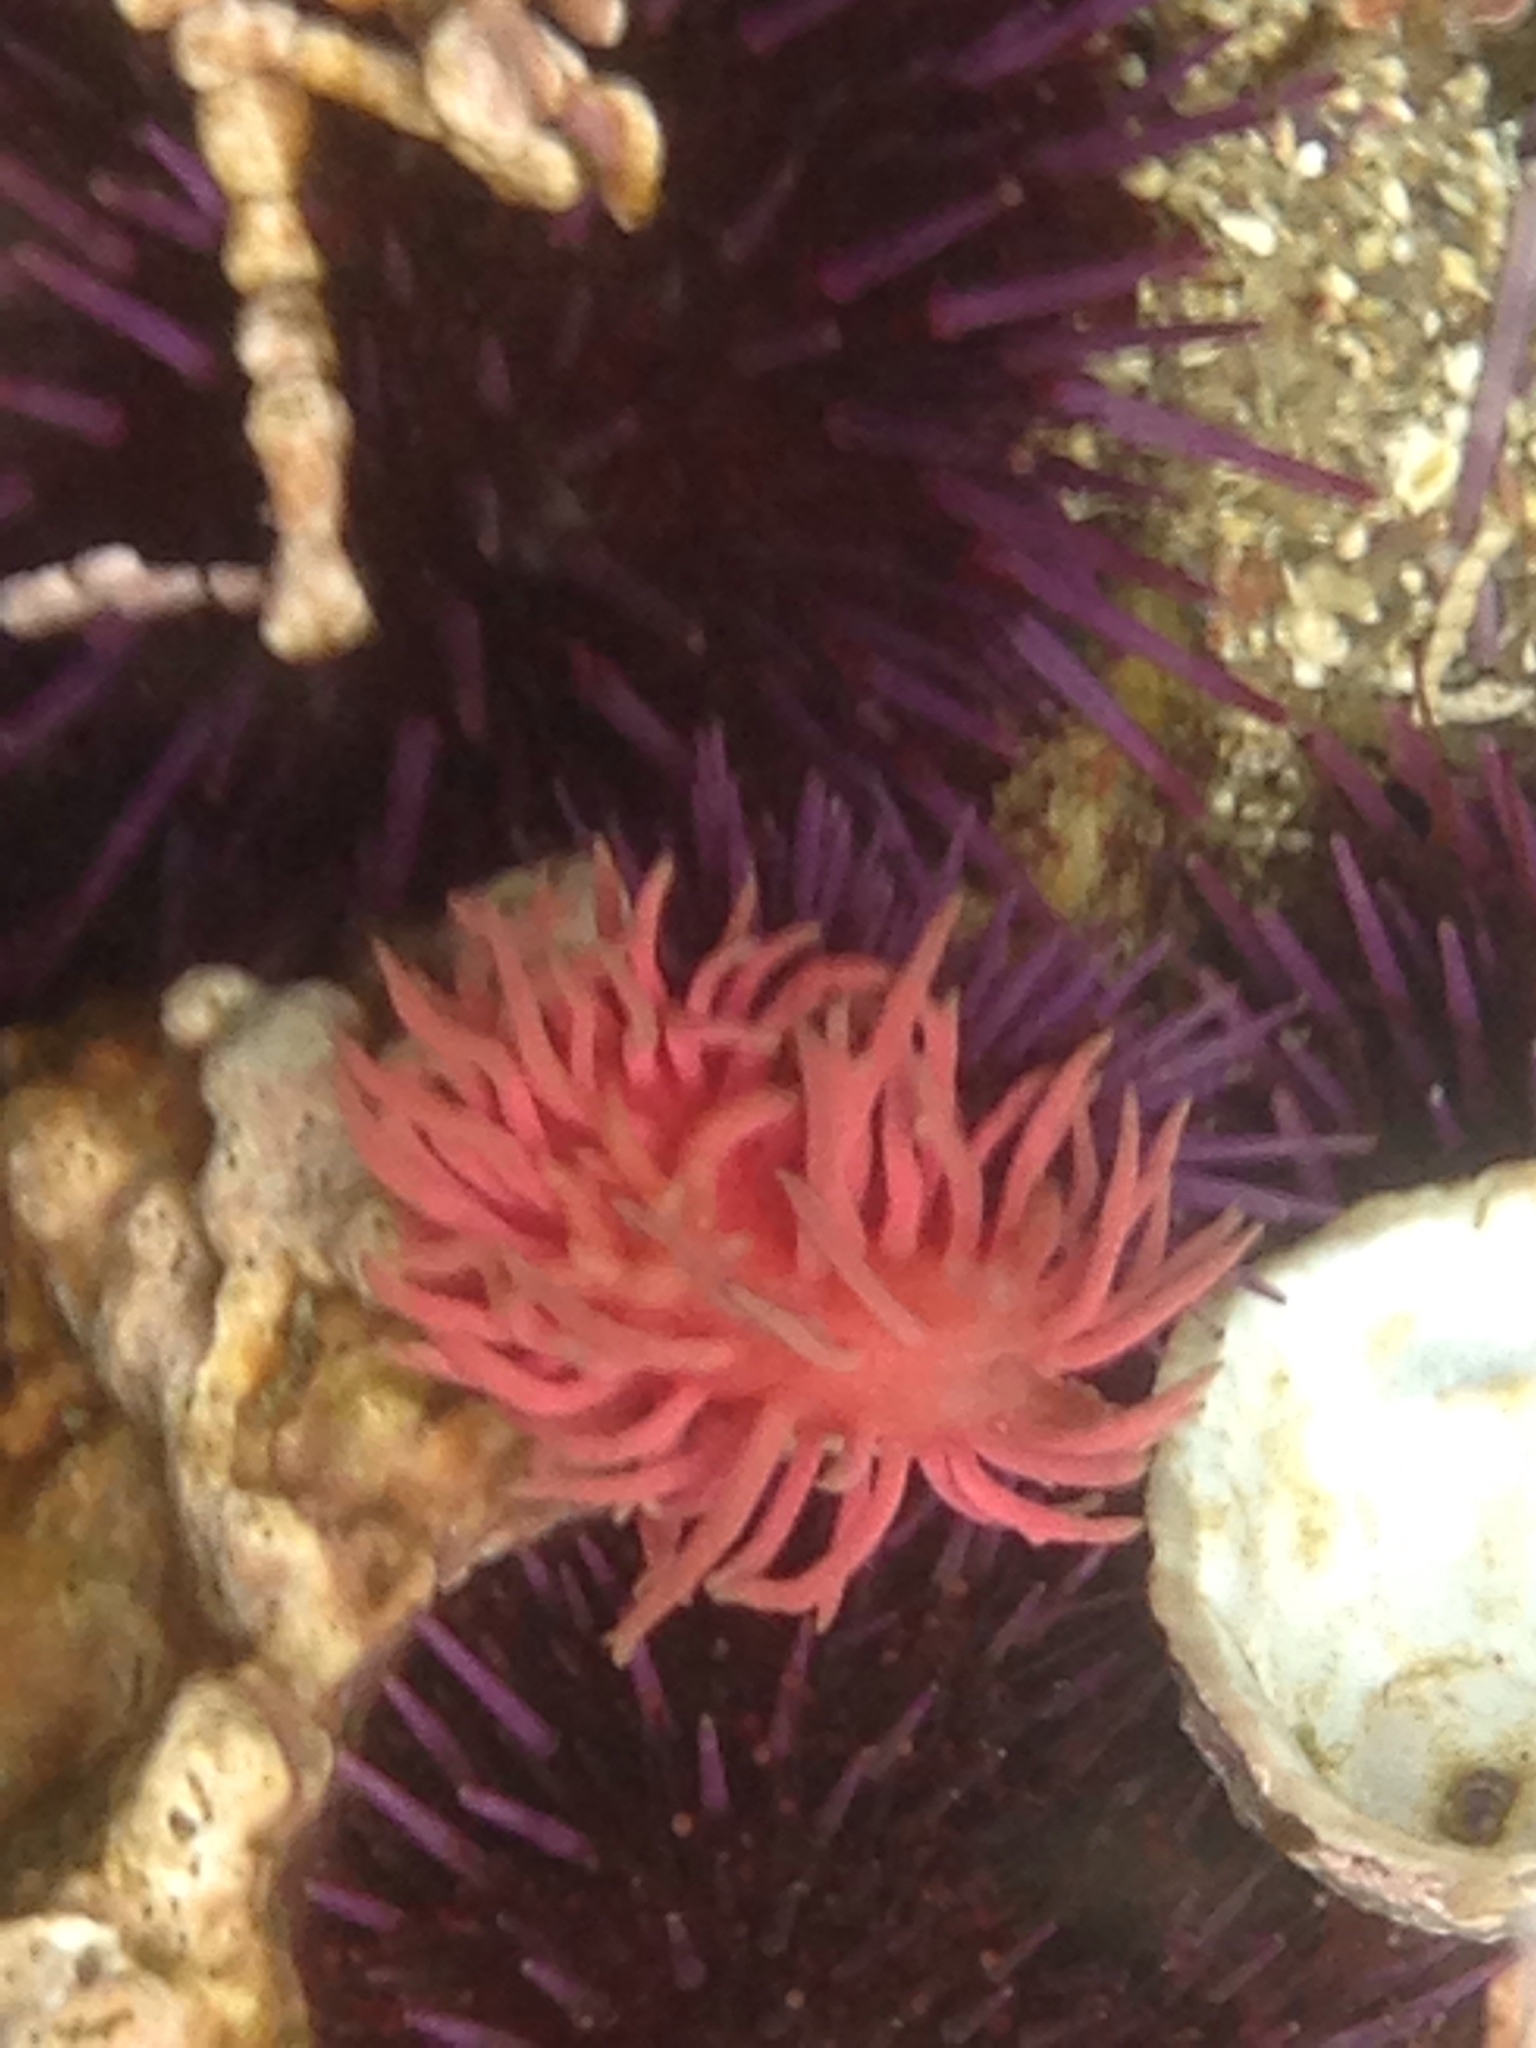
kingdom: Animalia
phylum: Mollusca
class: Gastropoda
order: Nudibranchia
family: Goniodorididae
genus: Okenia
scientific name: Okenia
